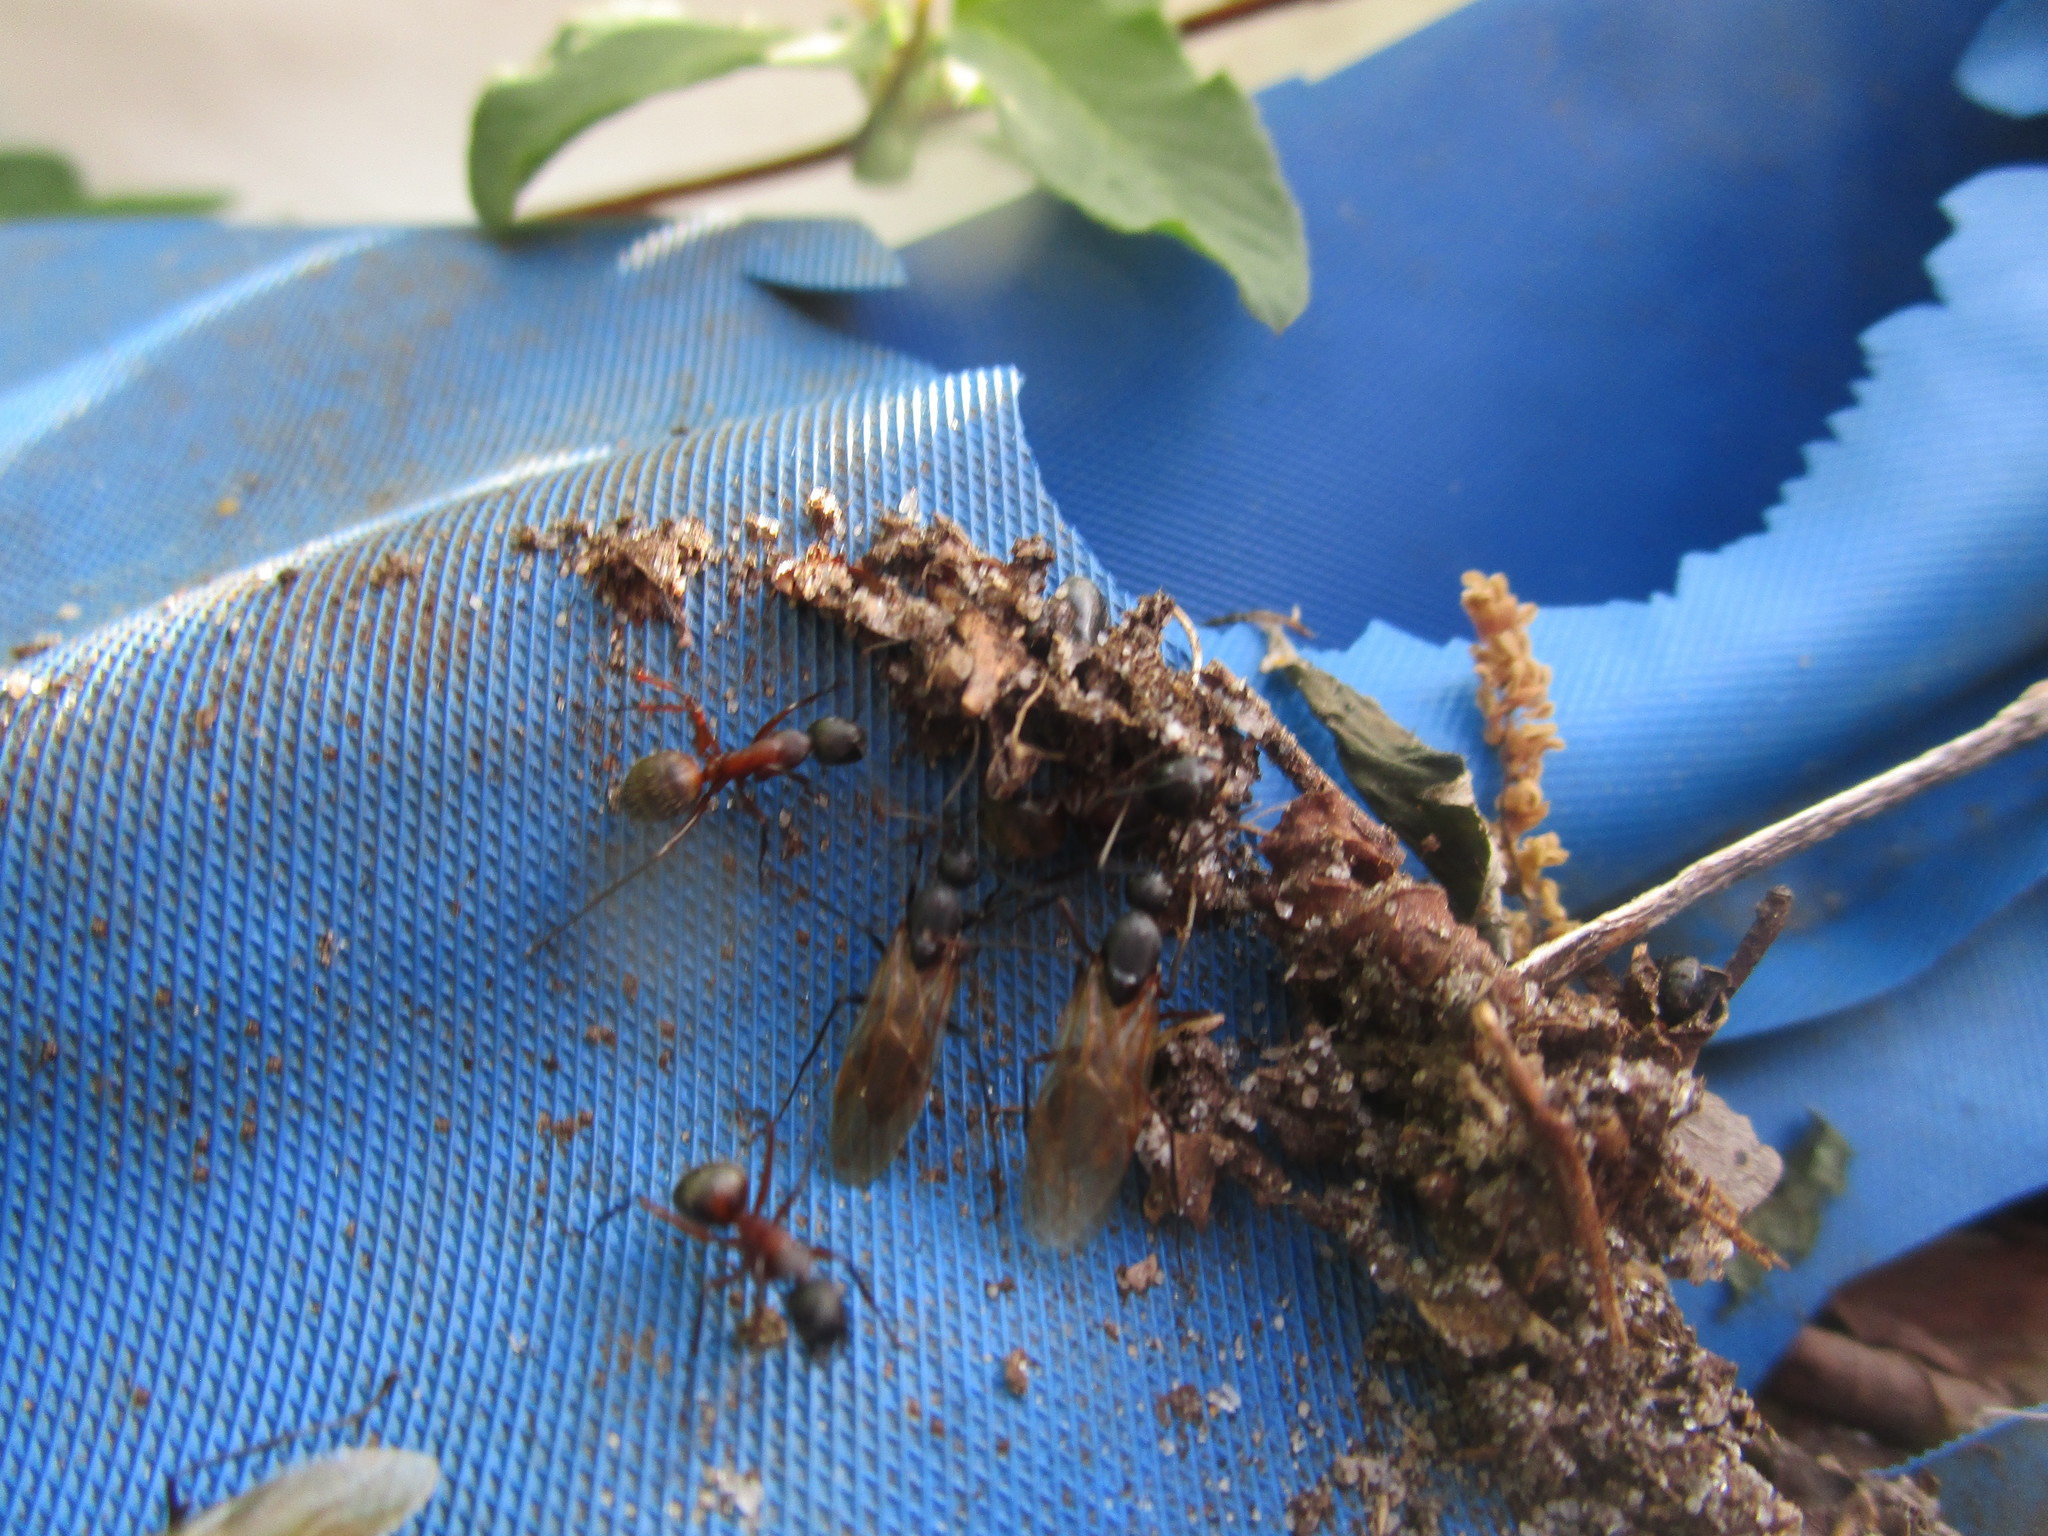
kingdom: Animalia
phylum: Arthropoda
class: Insecta
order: Hymenoptera
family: Formicidae
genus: Camponotus
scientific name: Camponotus chromaiodes
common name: Red carpenter ant
